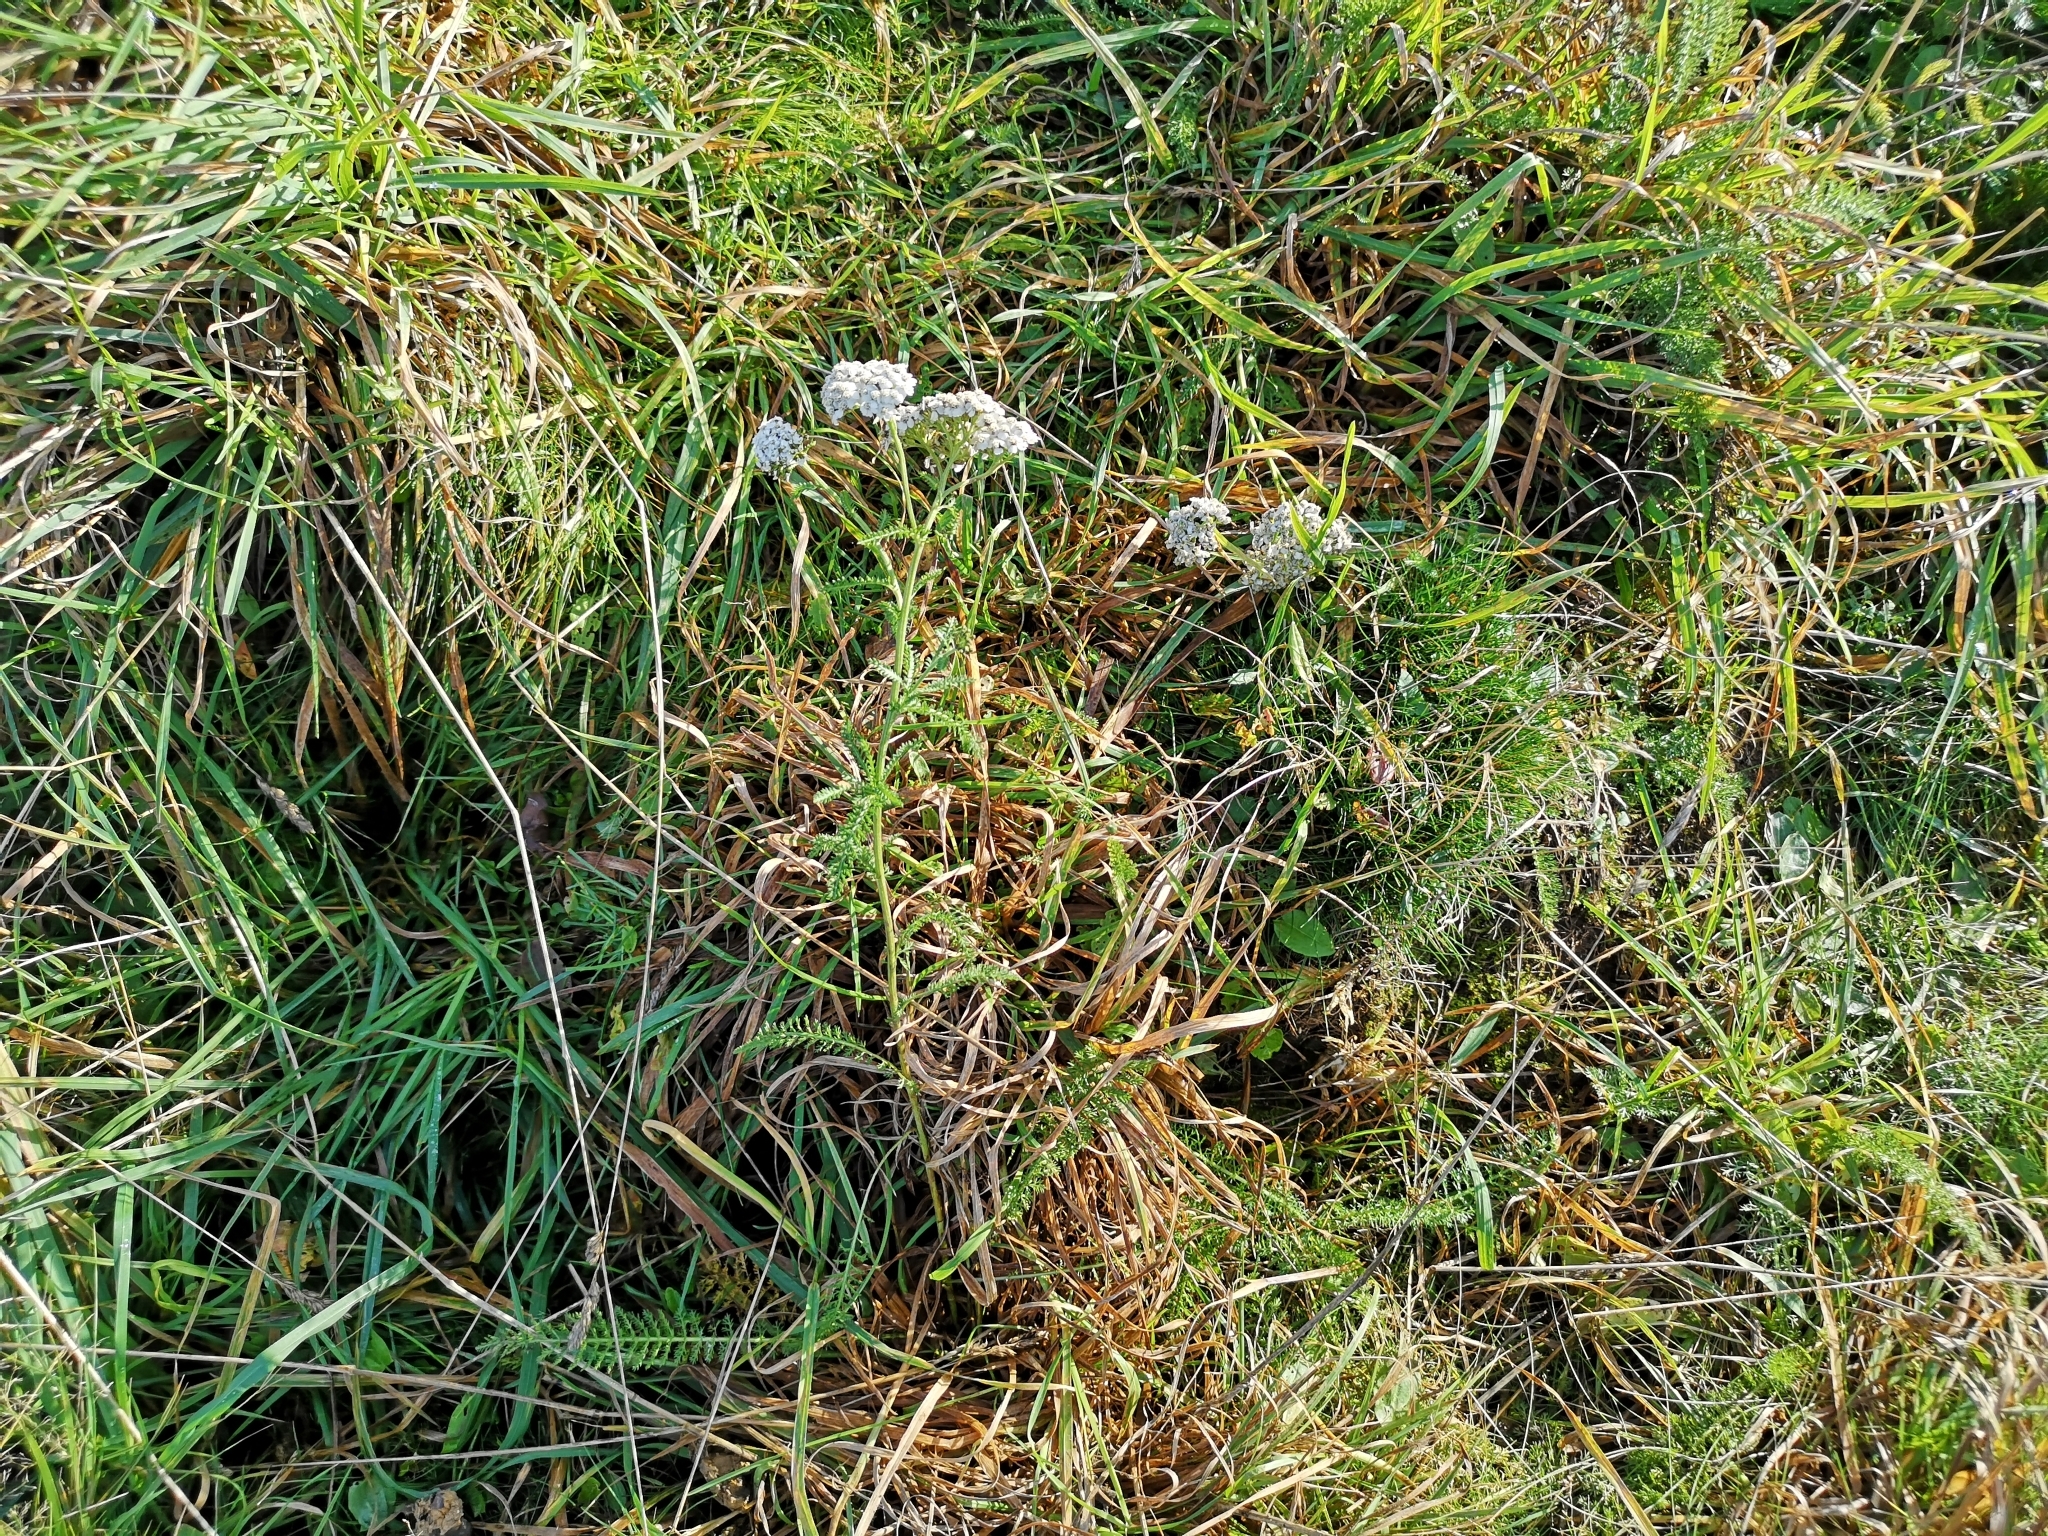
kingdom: Plantae
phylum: Tracheophyta
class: Magnoliopsida
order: Asterales
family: Asteraceae
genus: Achillea
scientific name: Achillea millefolium
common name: Yarrow
